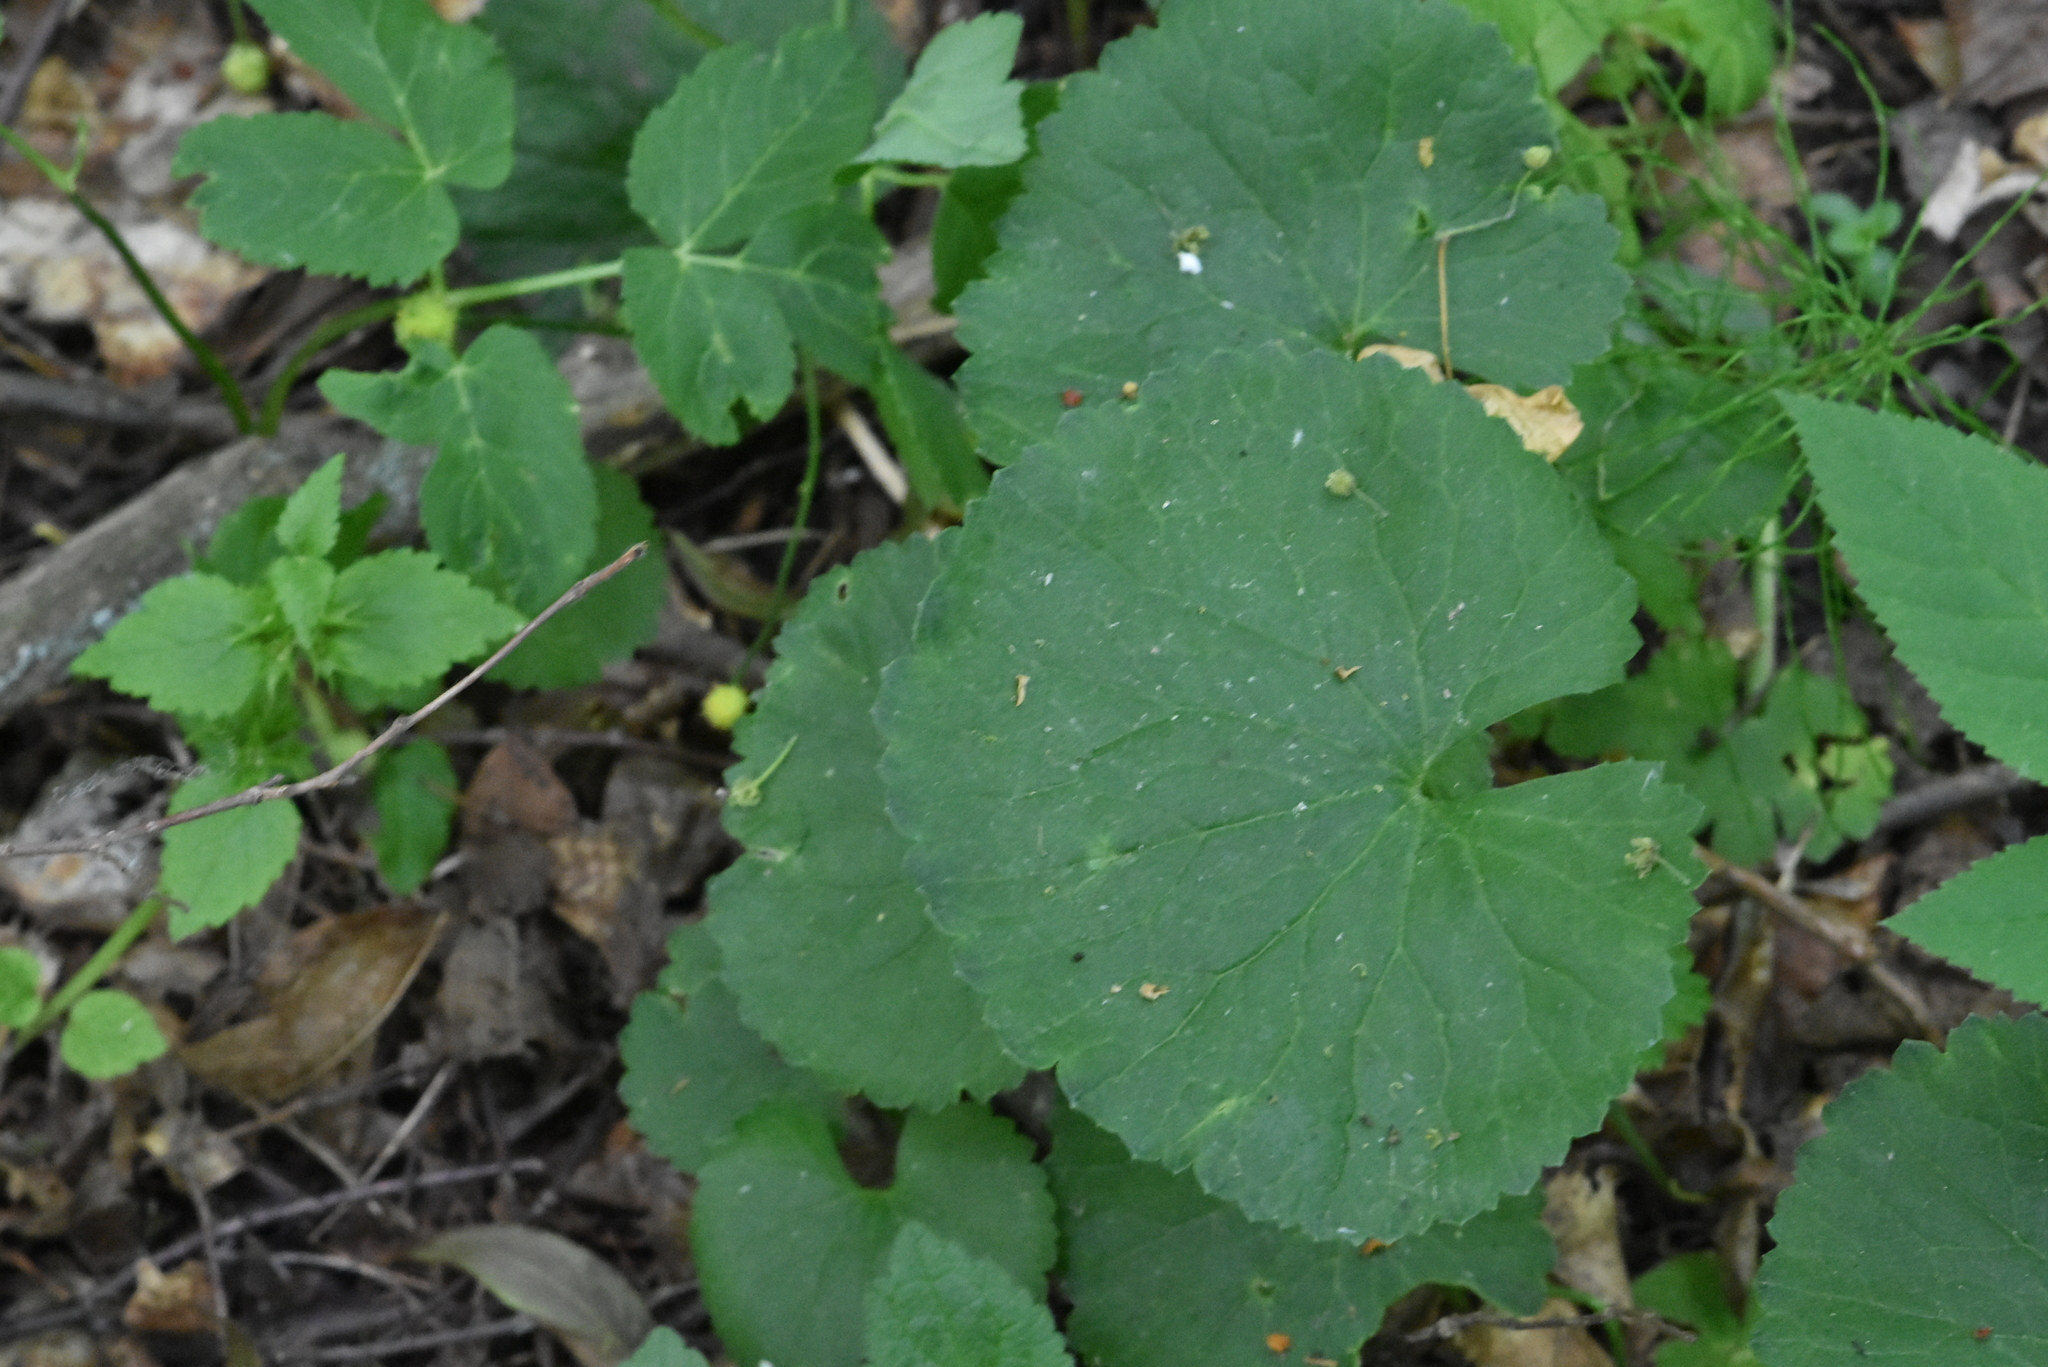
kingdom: Plantae
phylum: Tracheophyta
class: Magnoliopsida
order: Ranunculales
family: Ranunculaceae
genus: Ranunculus
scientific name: Ranunculus cassubicus
